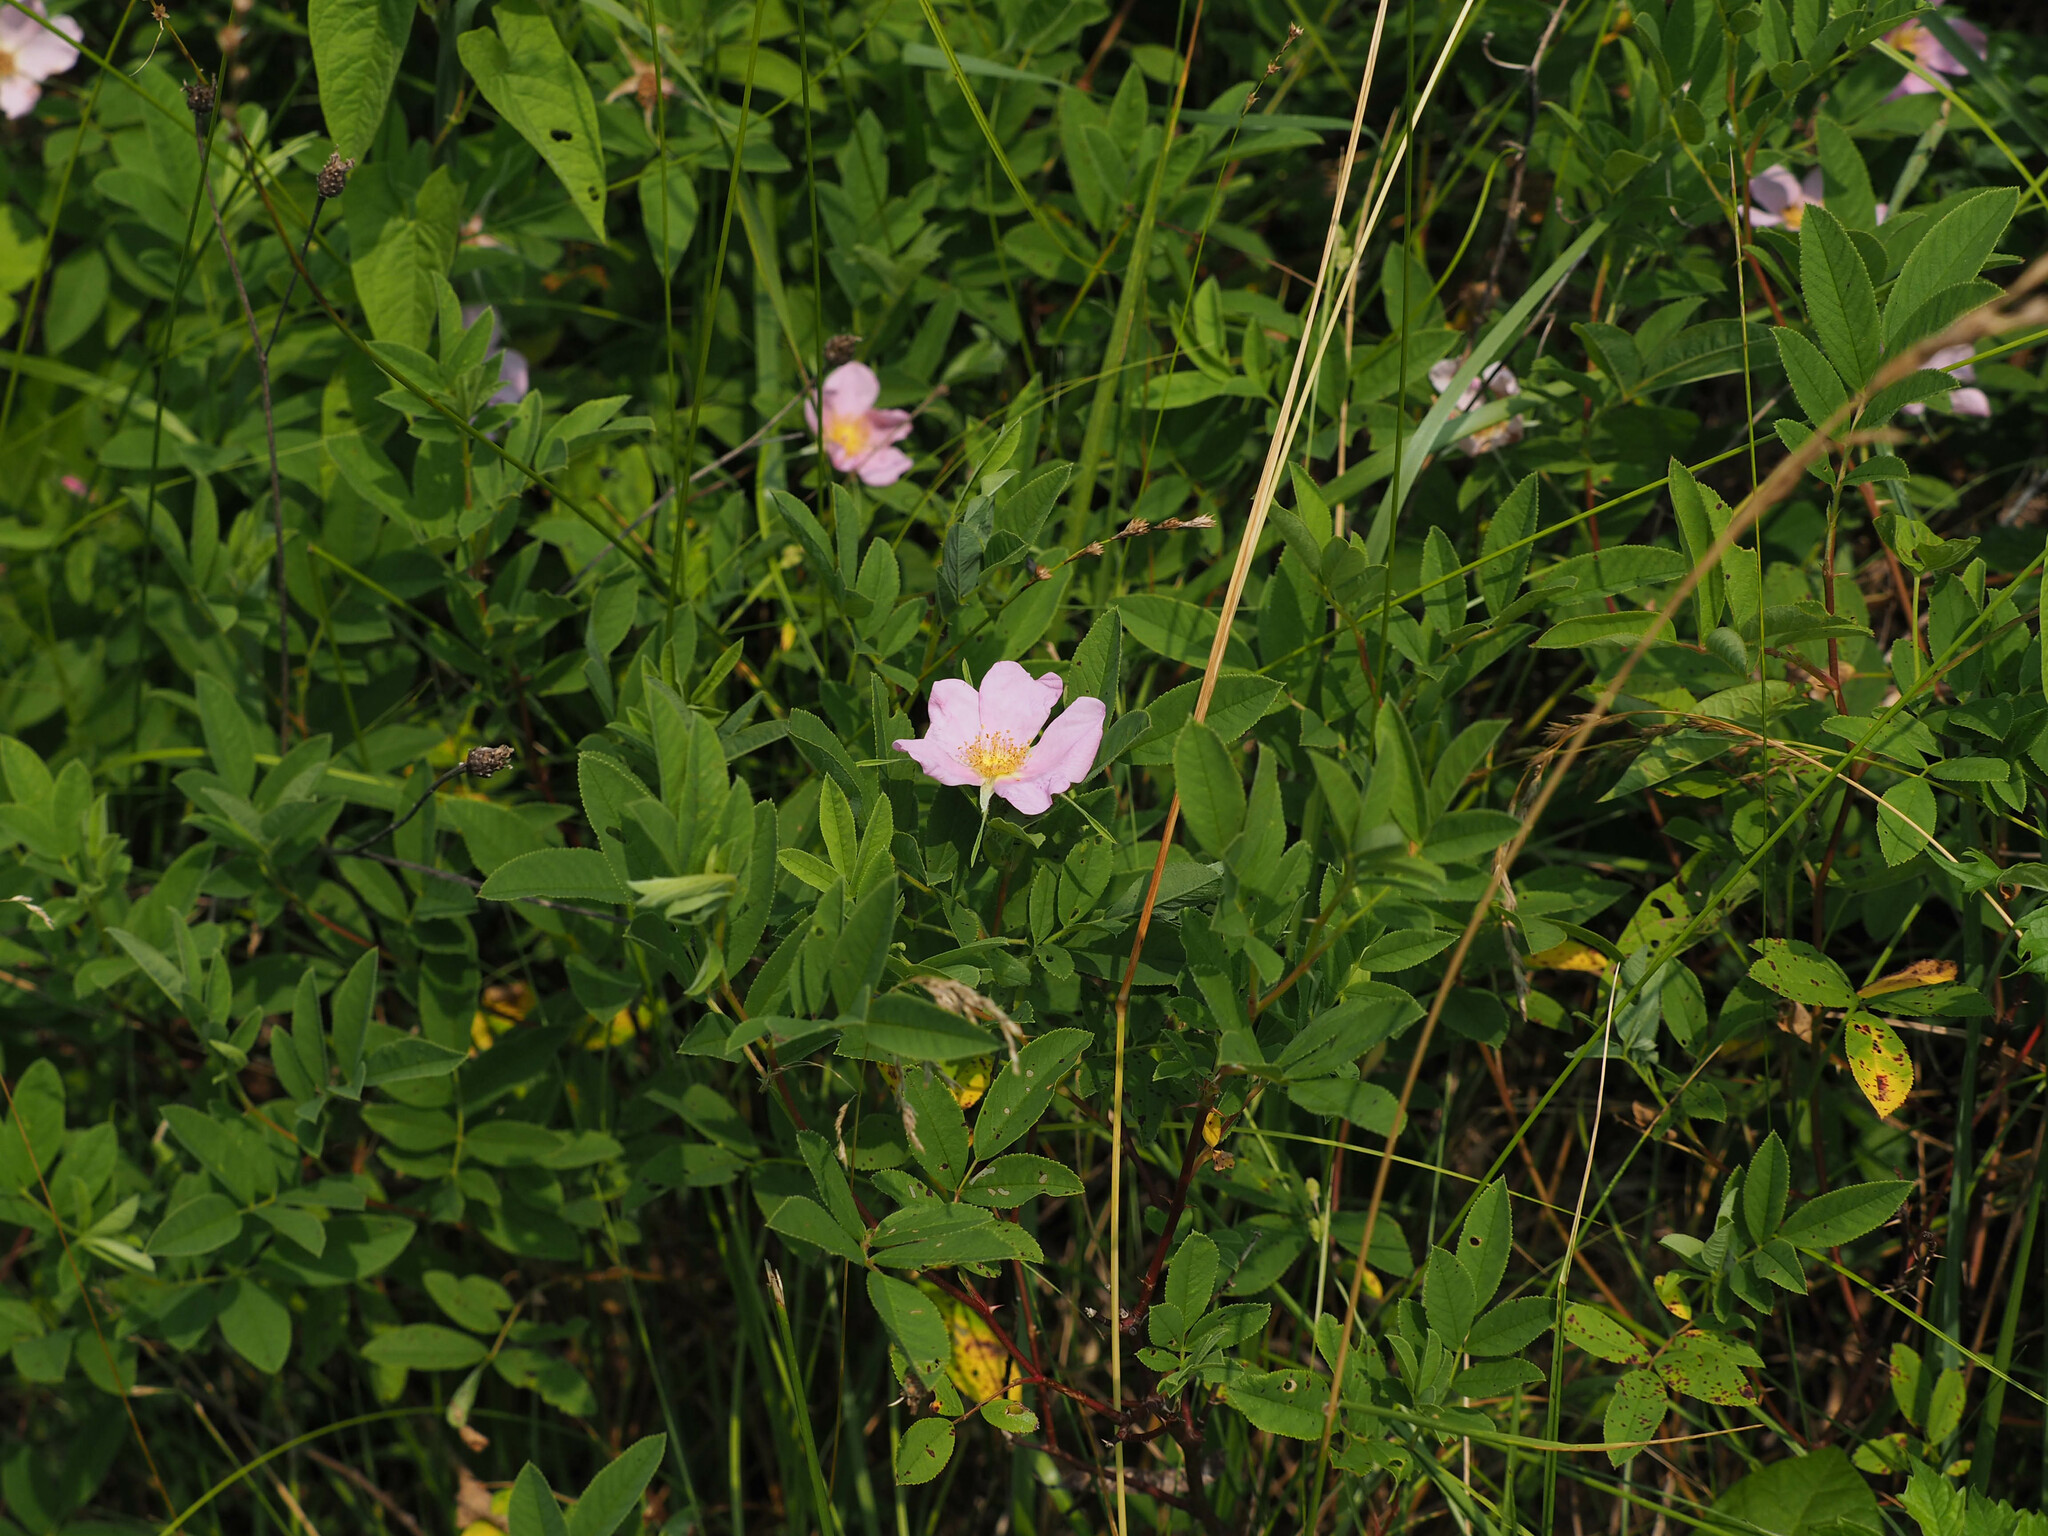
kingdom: Plantae
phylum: Tracheophyta
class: Magnoliopsida
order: Rosales
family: Rosaceae
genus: Rosa
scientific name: Rosa palustris
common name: Swamp rose
